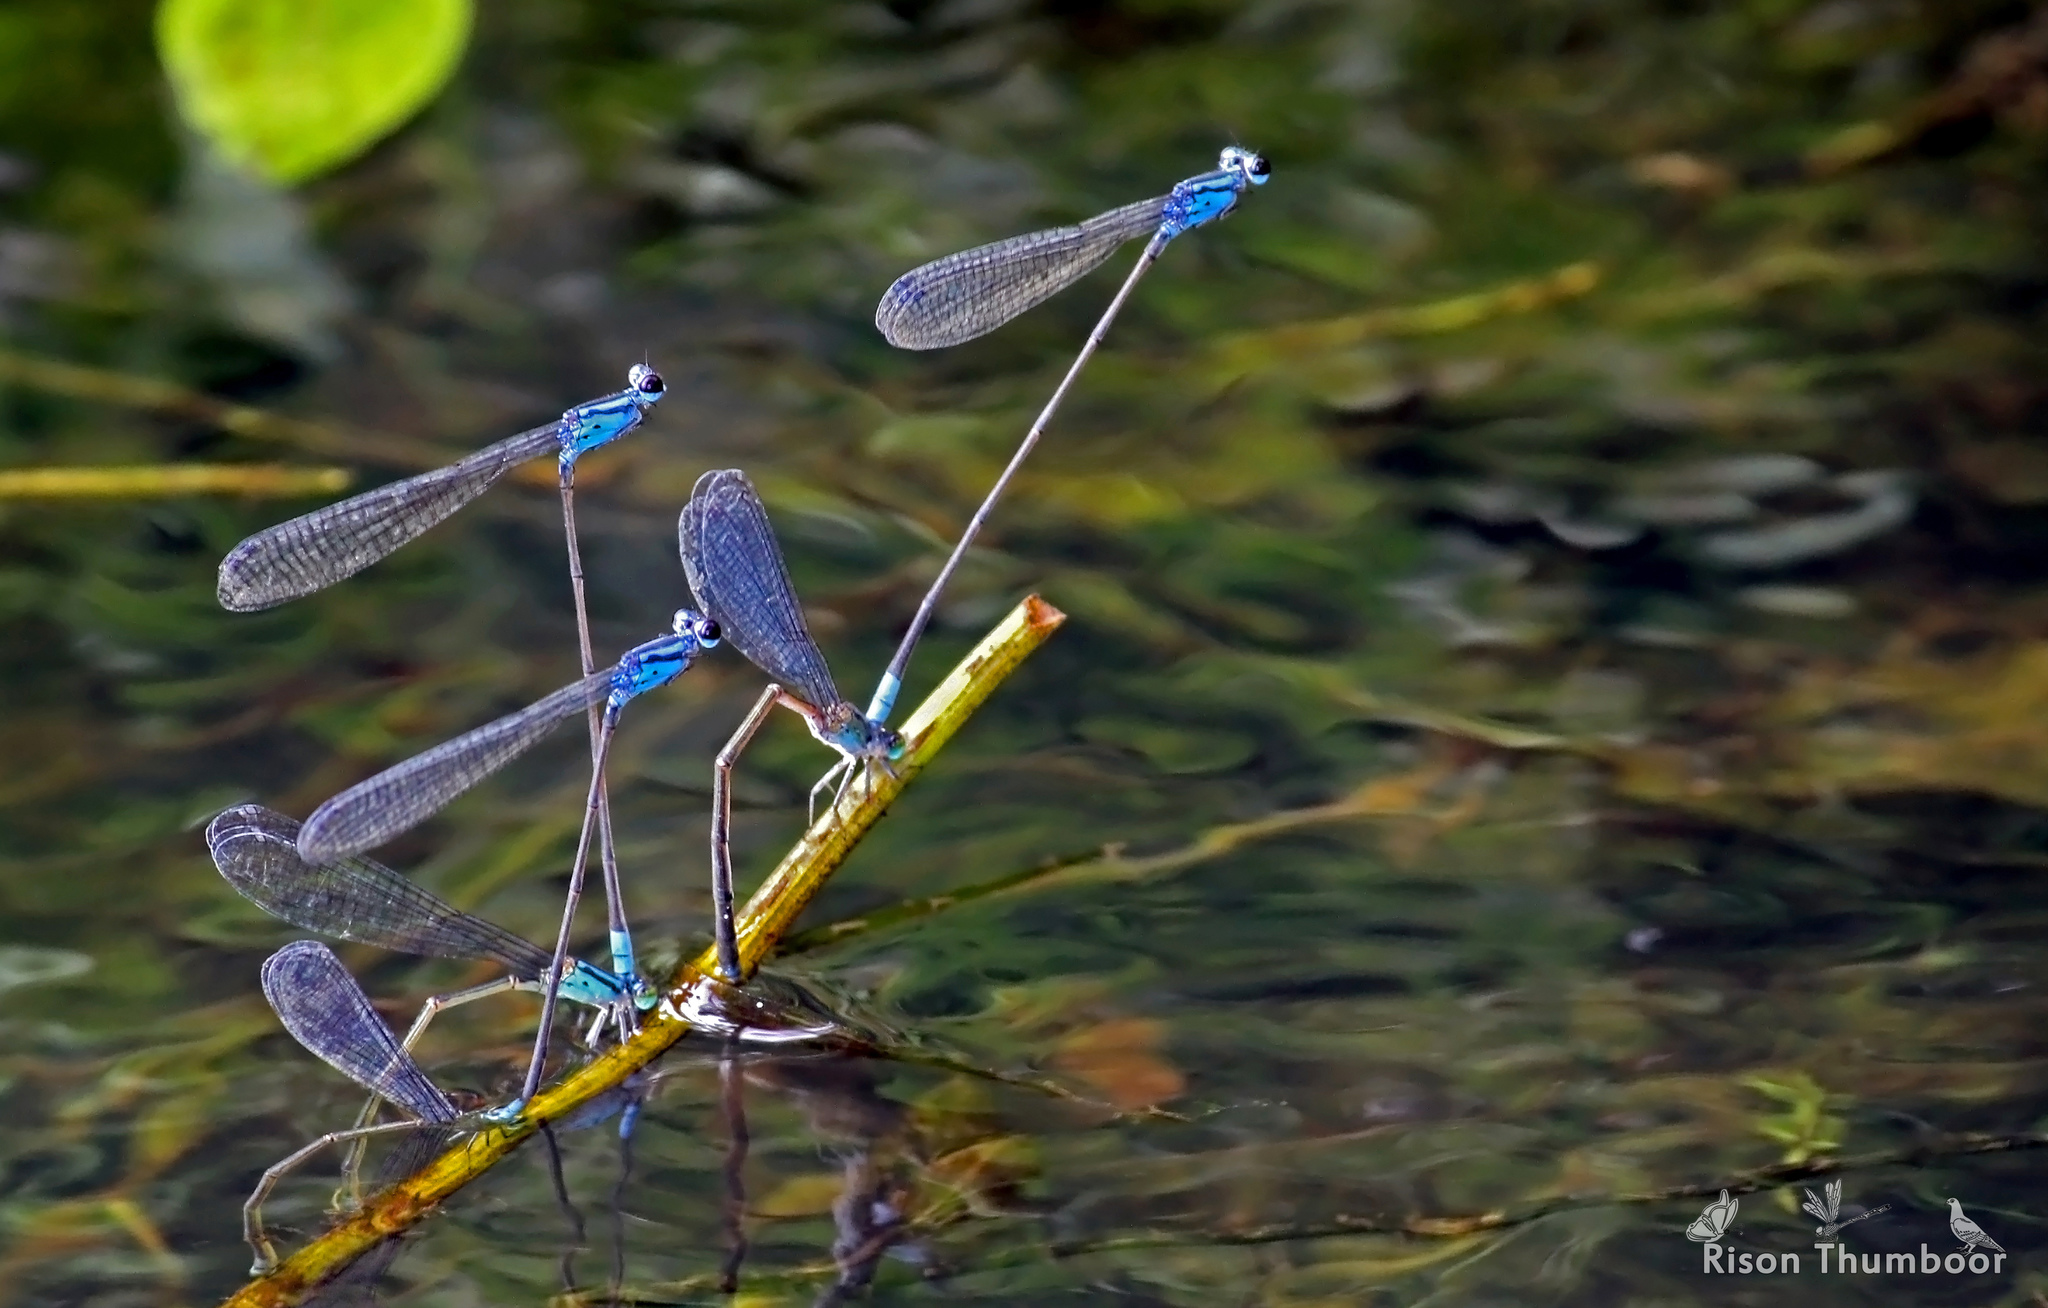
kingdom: Animalia
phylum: Arthropoda
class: Insecta
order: Odonata
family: Coenagrionidae
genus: Archibasis
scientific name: Archibasis oscillans
